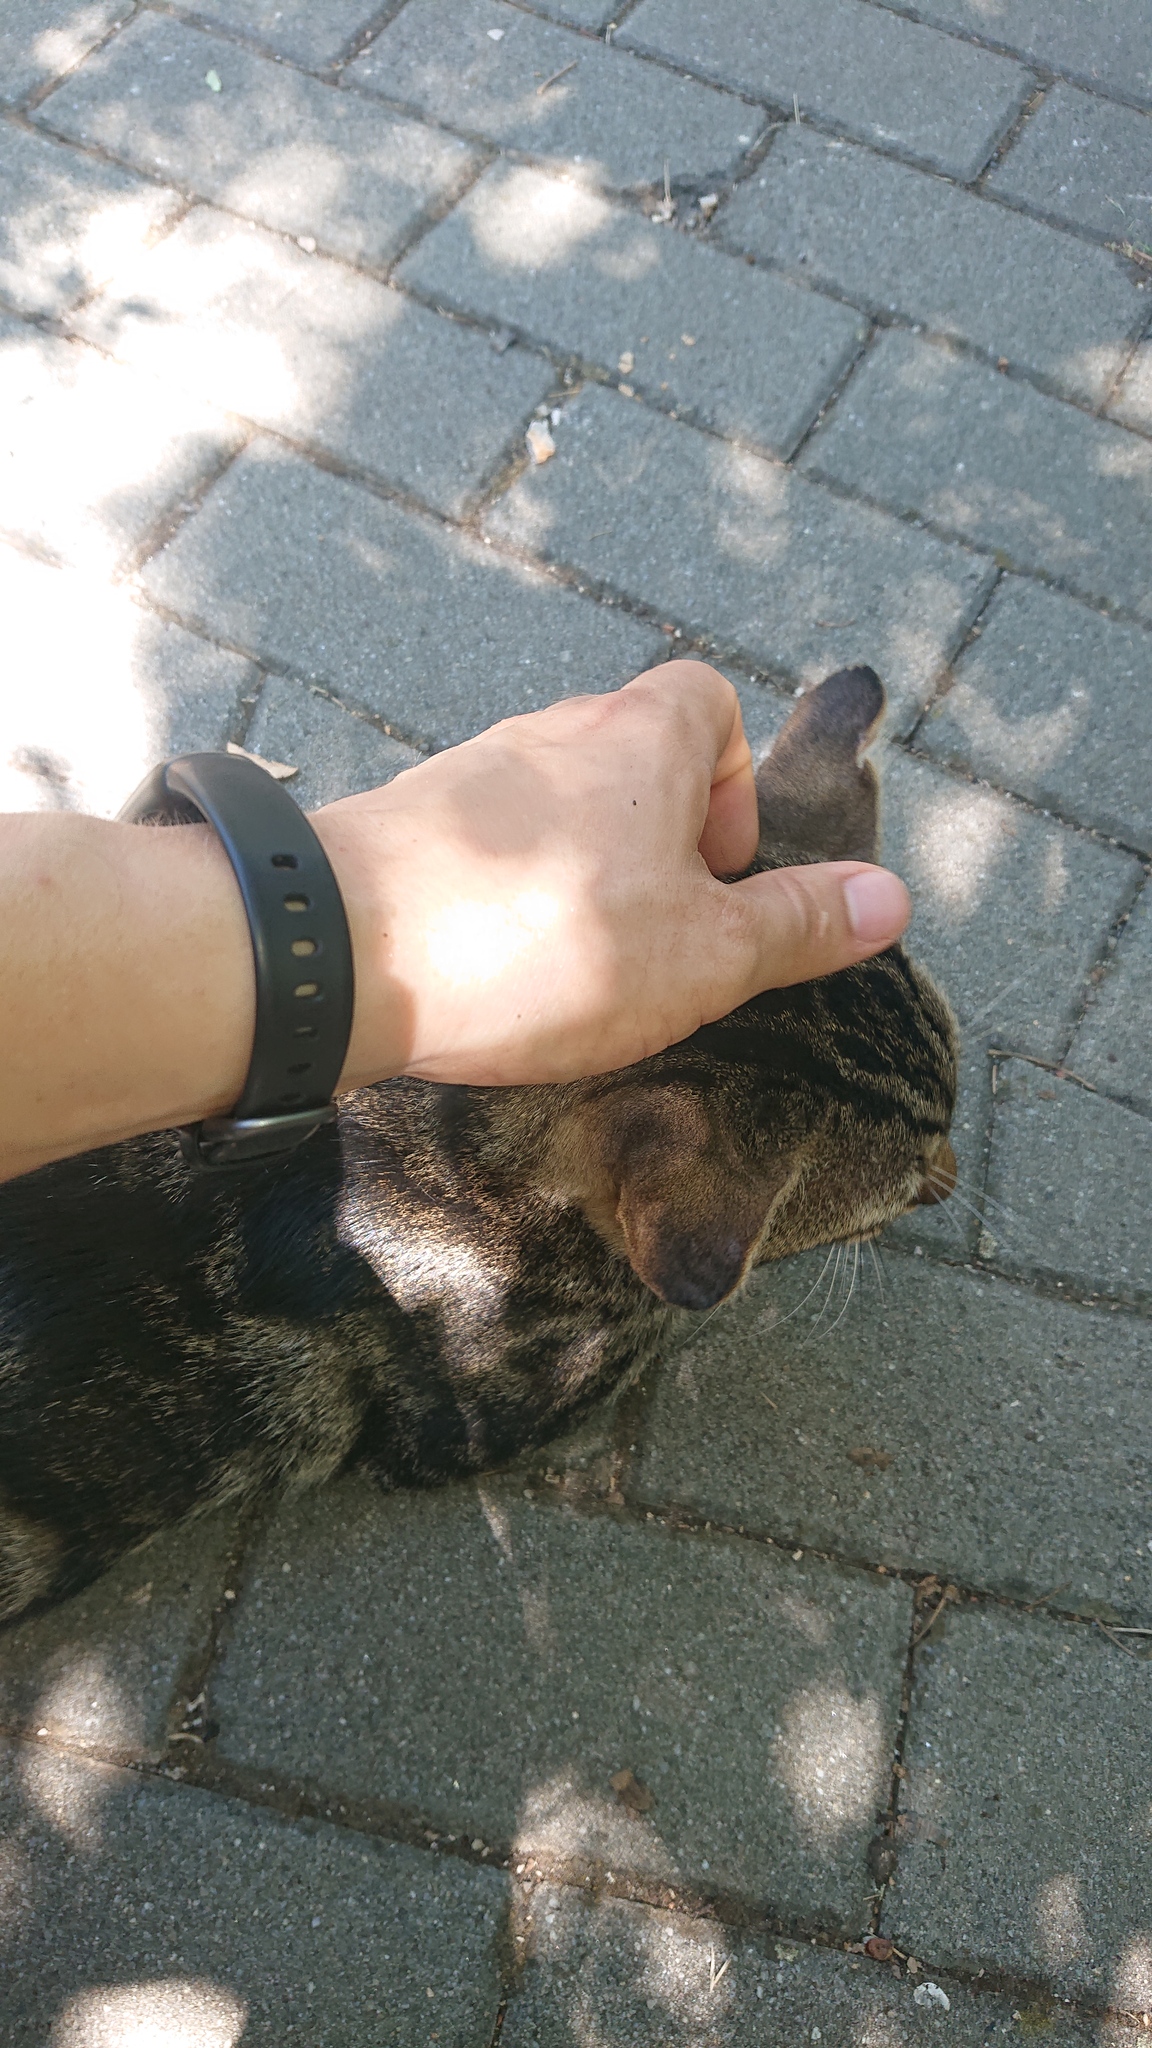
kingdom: Animalia
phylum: Chordata
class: Mammalia
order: Carnivora
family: Felidae
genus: Felis
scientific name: Felis catus
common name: Domestic cat
